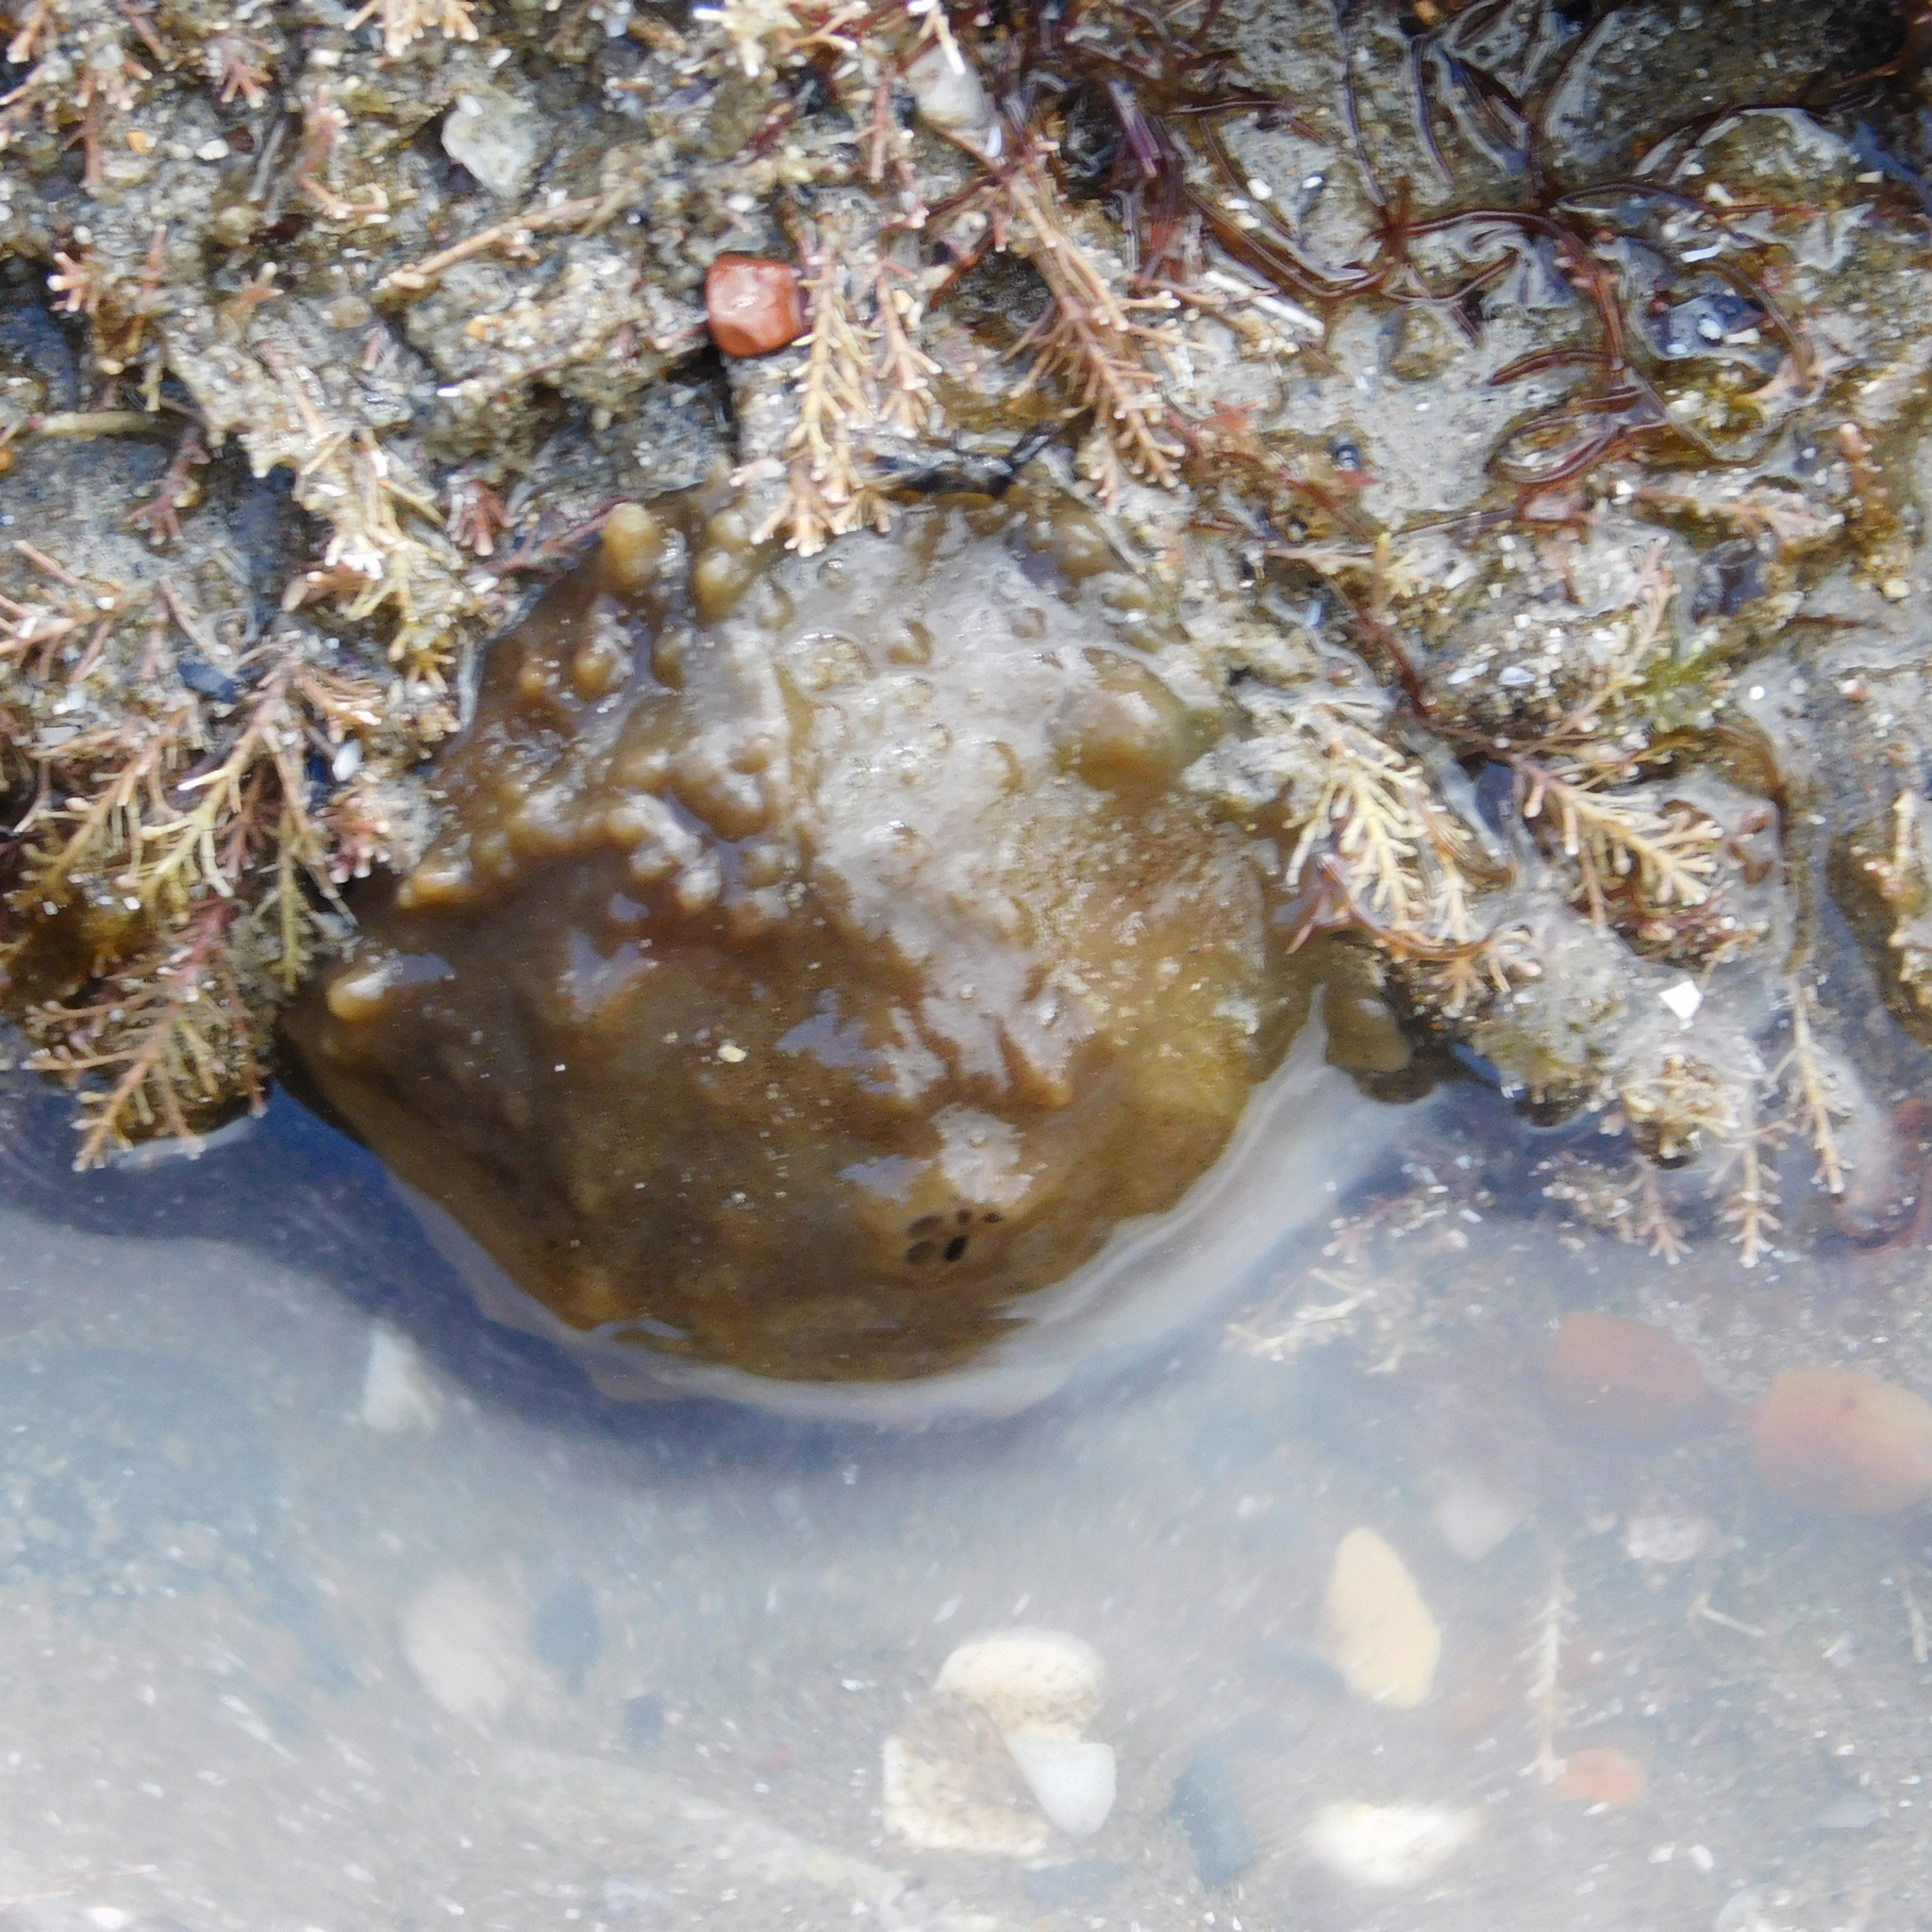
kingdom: Animalia
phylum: Porifera
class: Demospongiae
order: Suberitida
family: Suberitidae
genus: Aaptos
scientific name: Aaptos tenta
